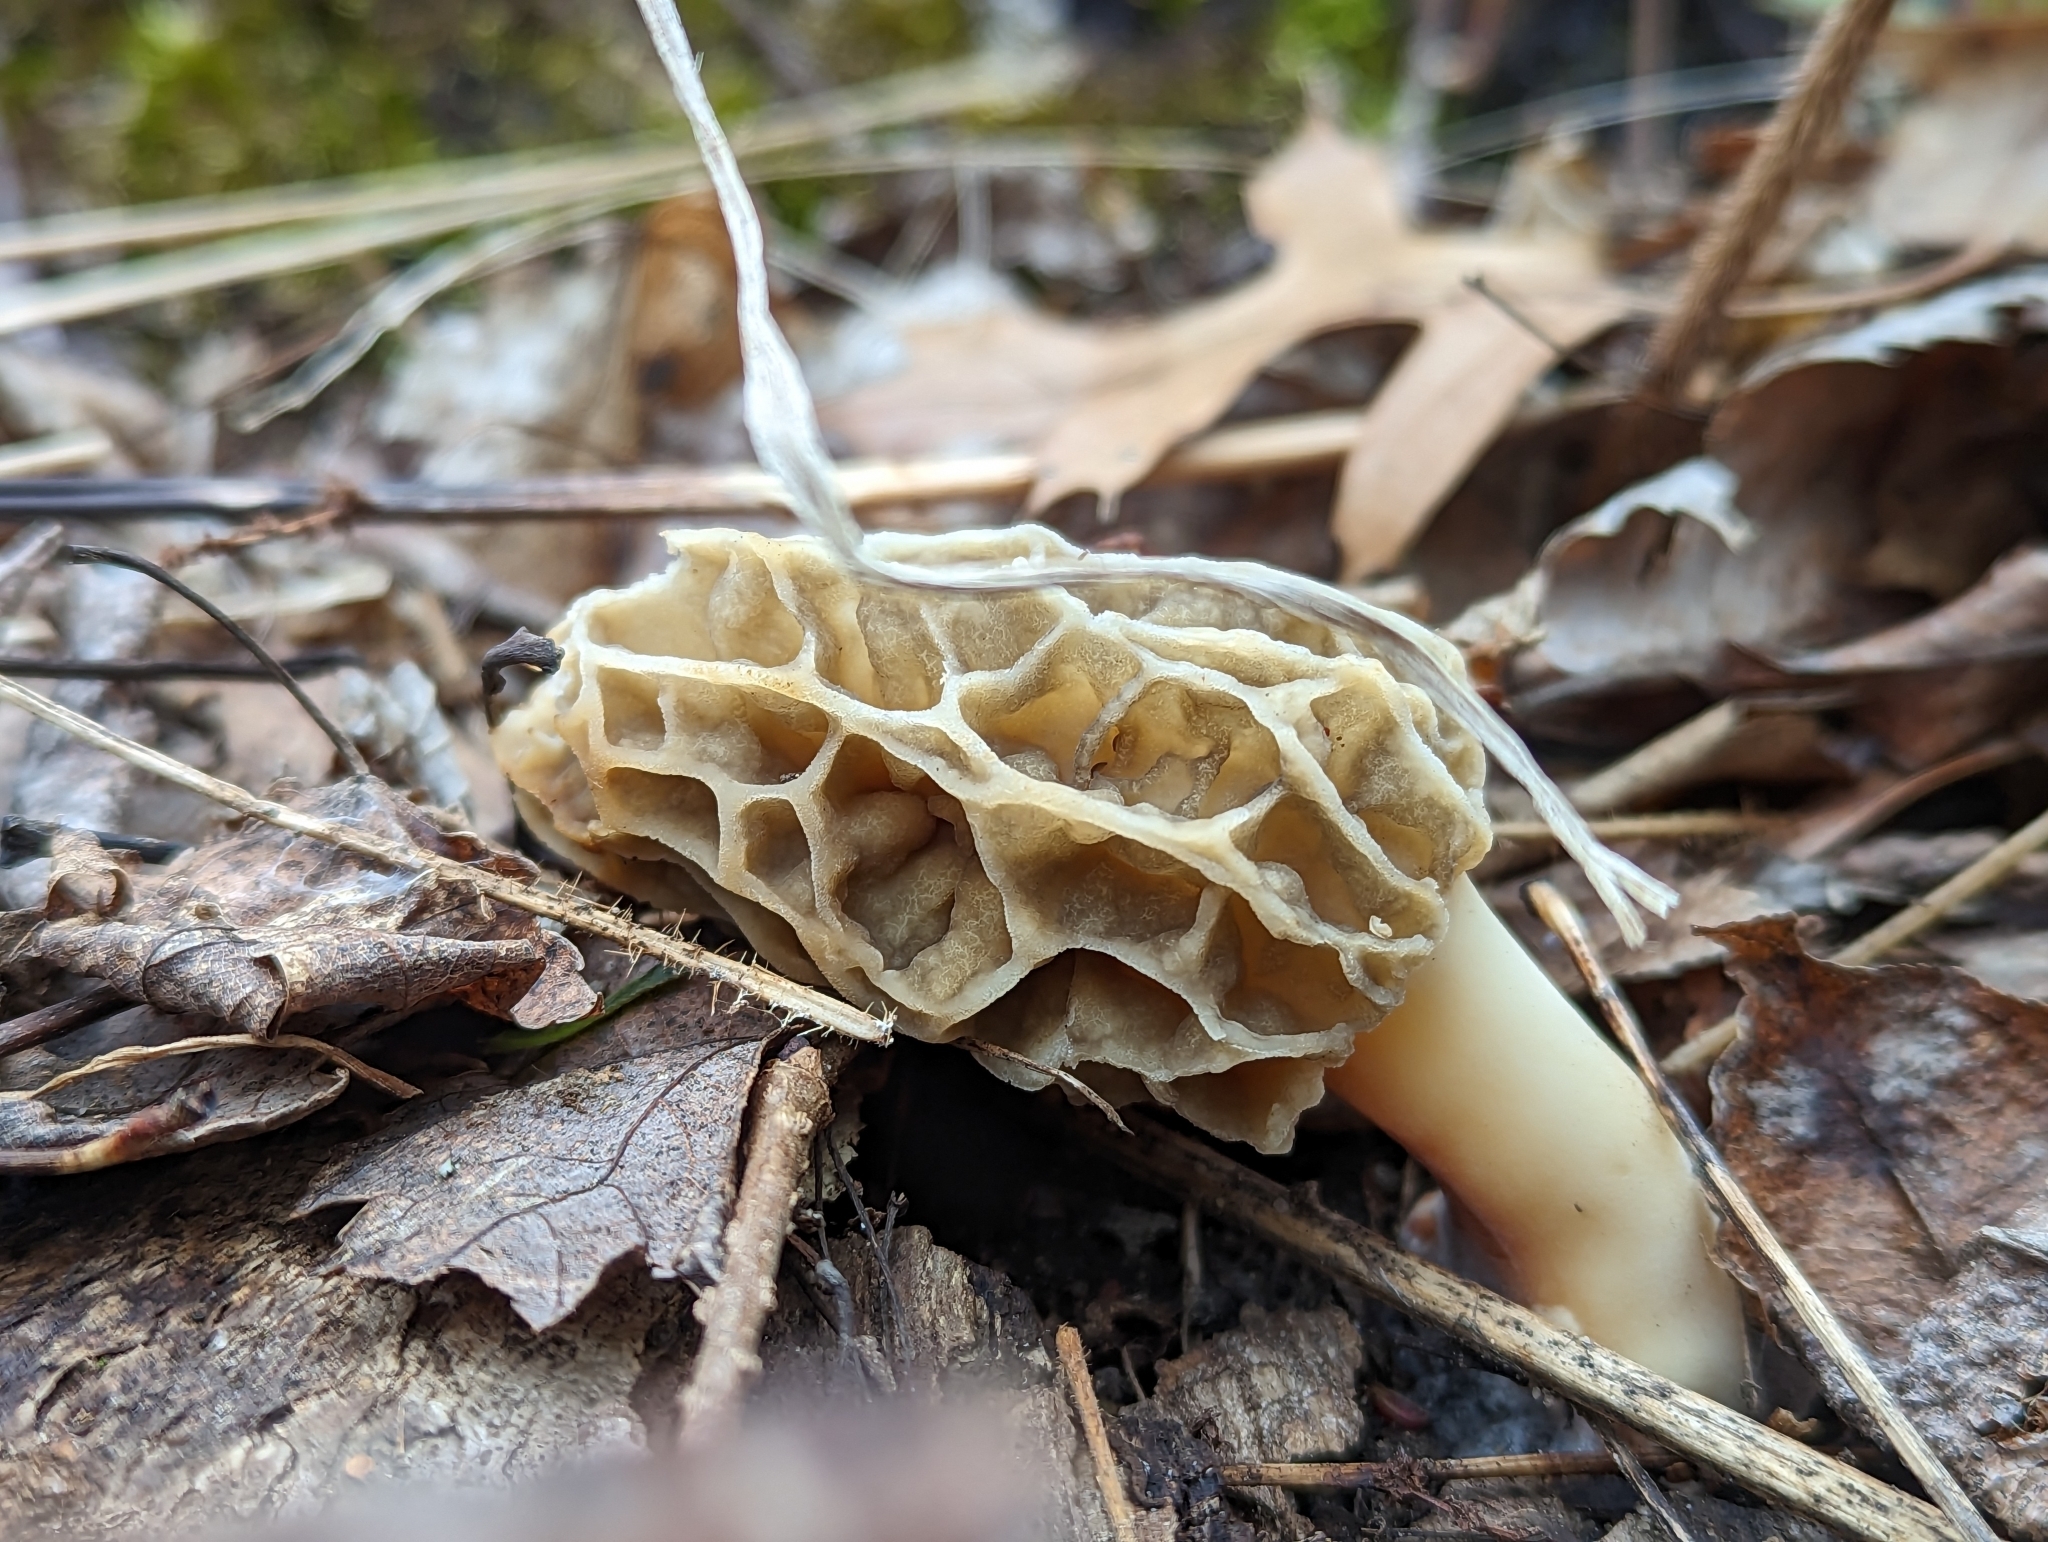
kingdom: Fungi
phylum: Ascomycota
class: Pezizomycetes
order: Pezizales
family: Morchellaceae
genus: Morchella
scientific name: Morchella americana
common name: White morel
